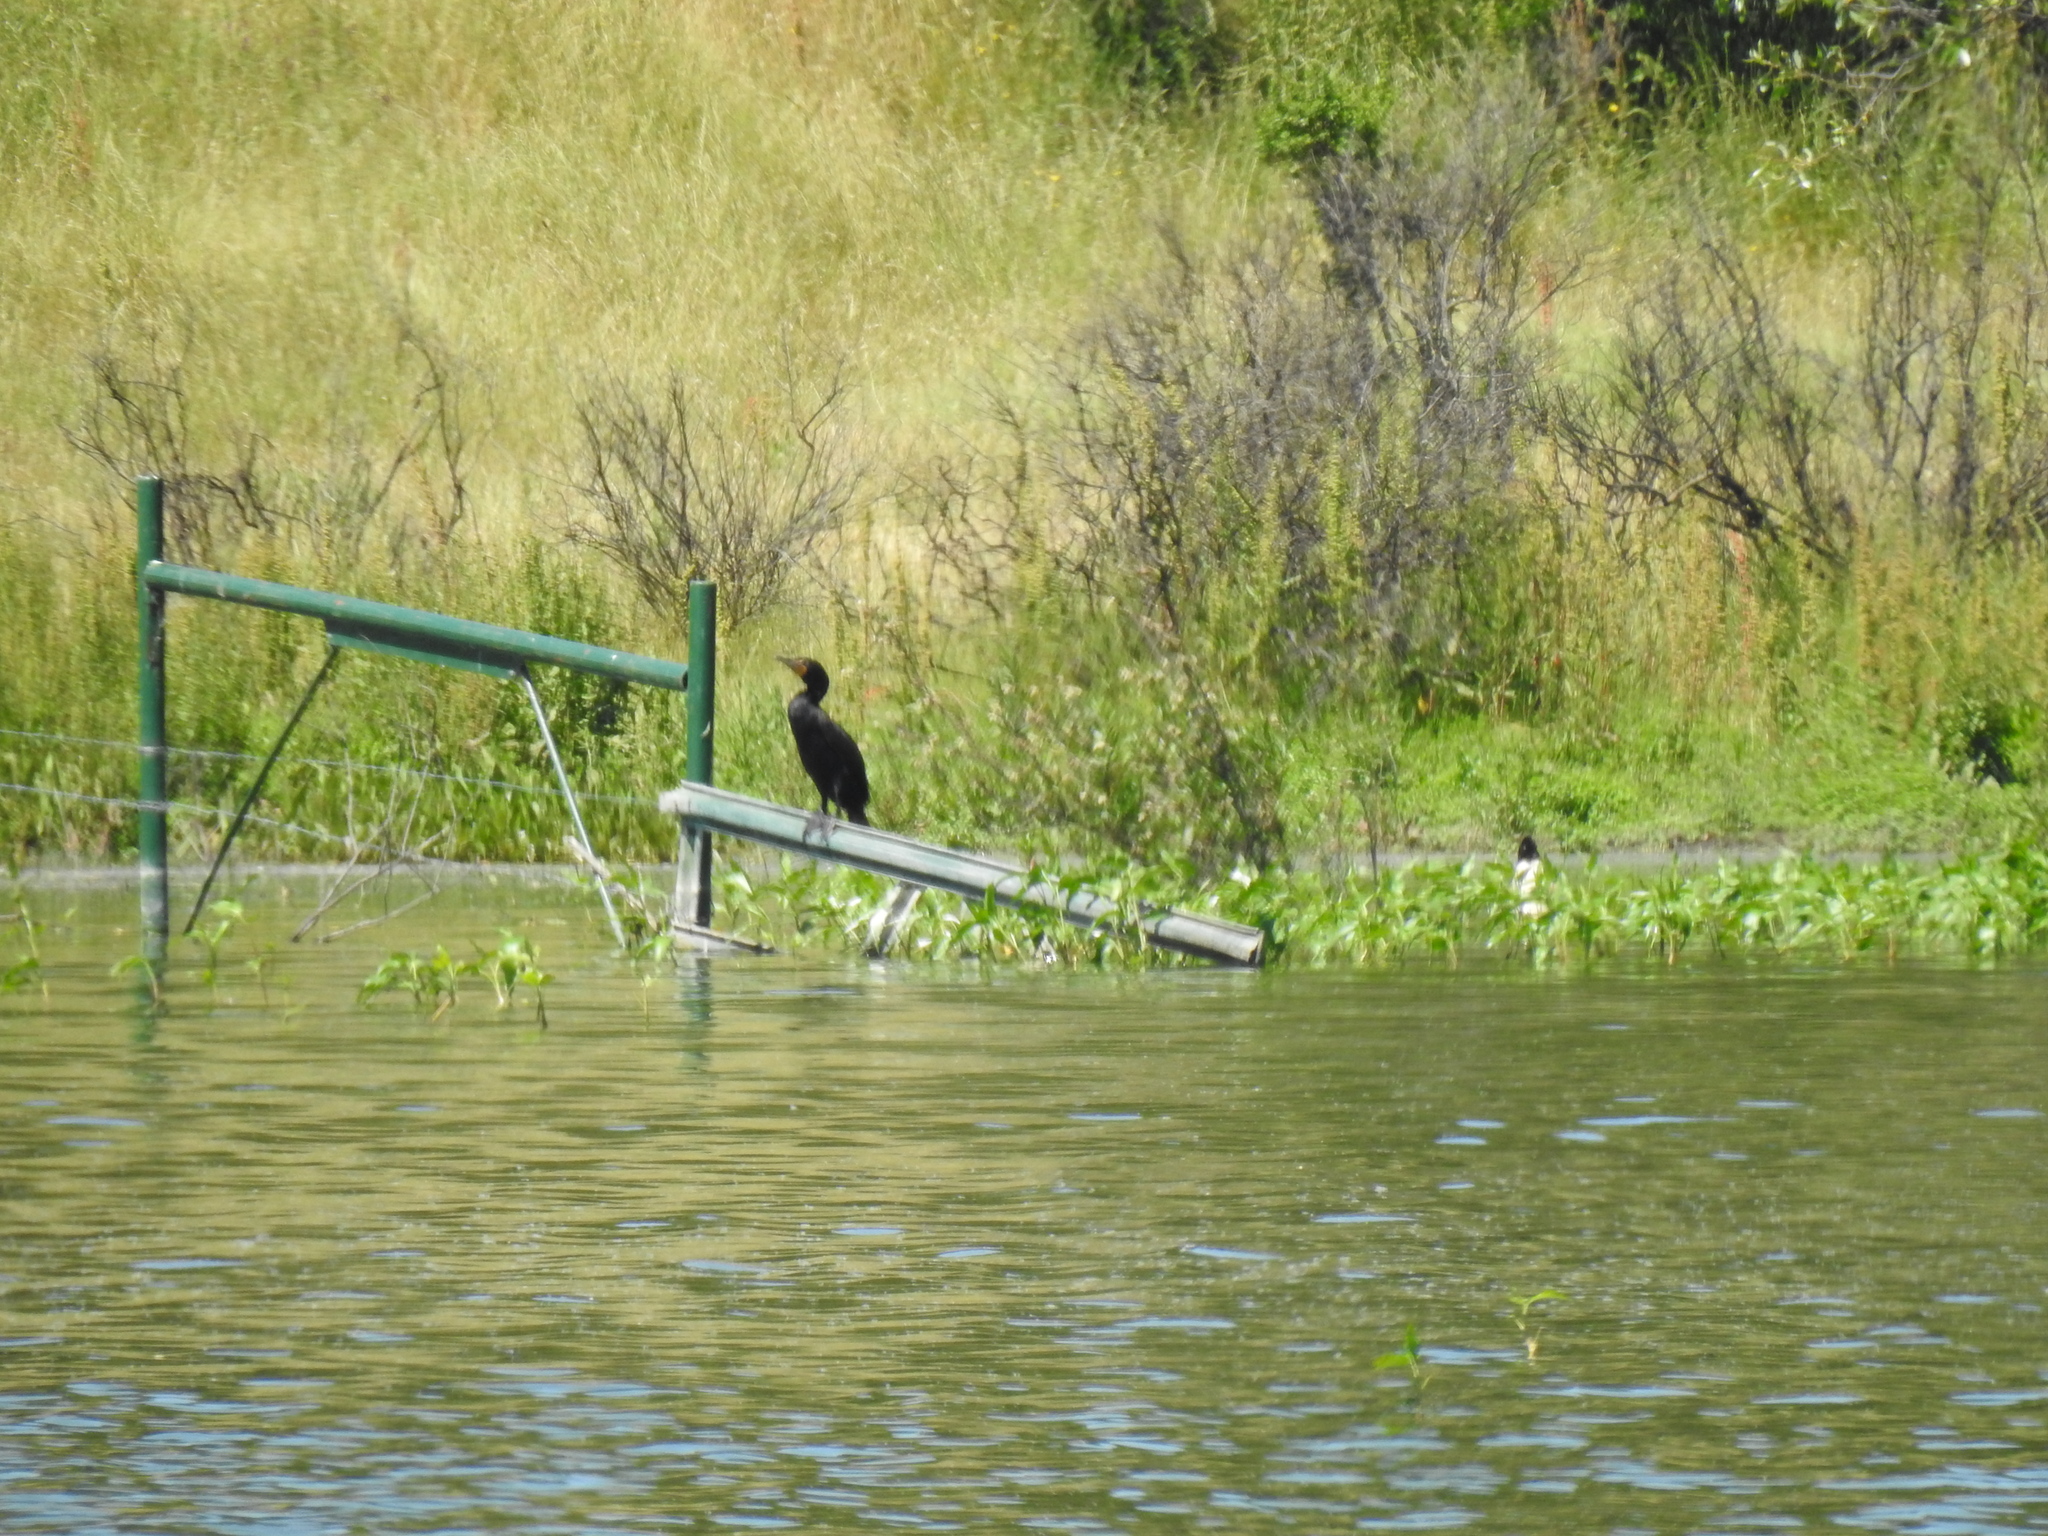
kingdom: Animalia
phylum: Chordata
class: Aves
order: Suliformes
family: Phalacrocoracidae
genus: Phalacrocorax
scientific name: Phalacrocorax auritus
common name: Double-crested cormorant
